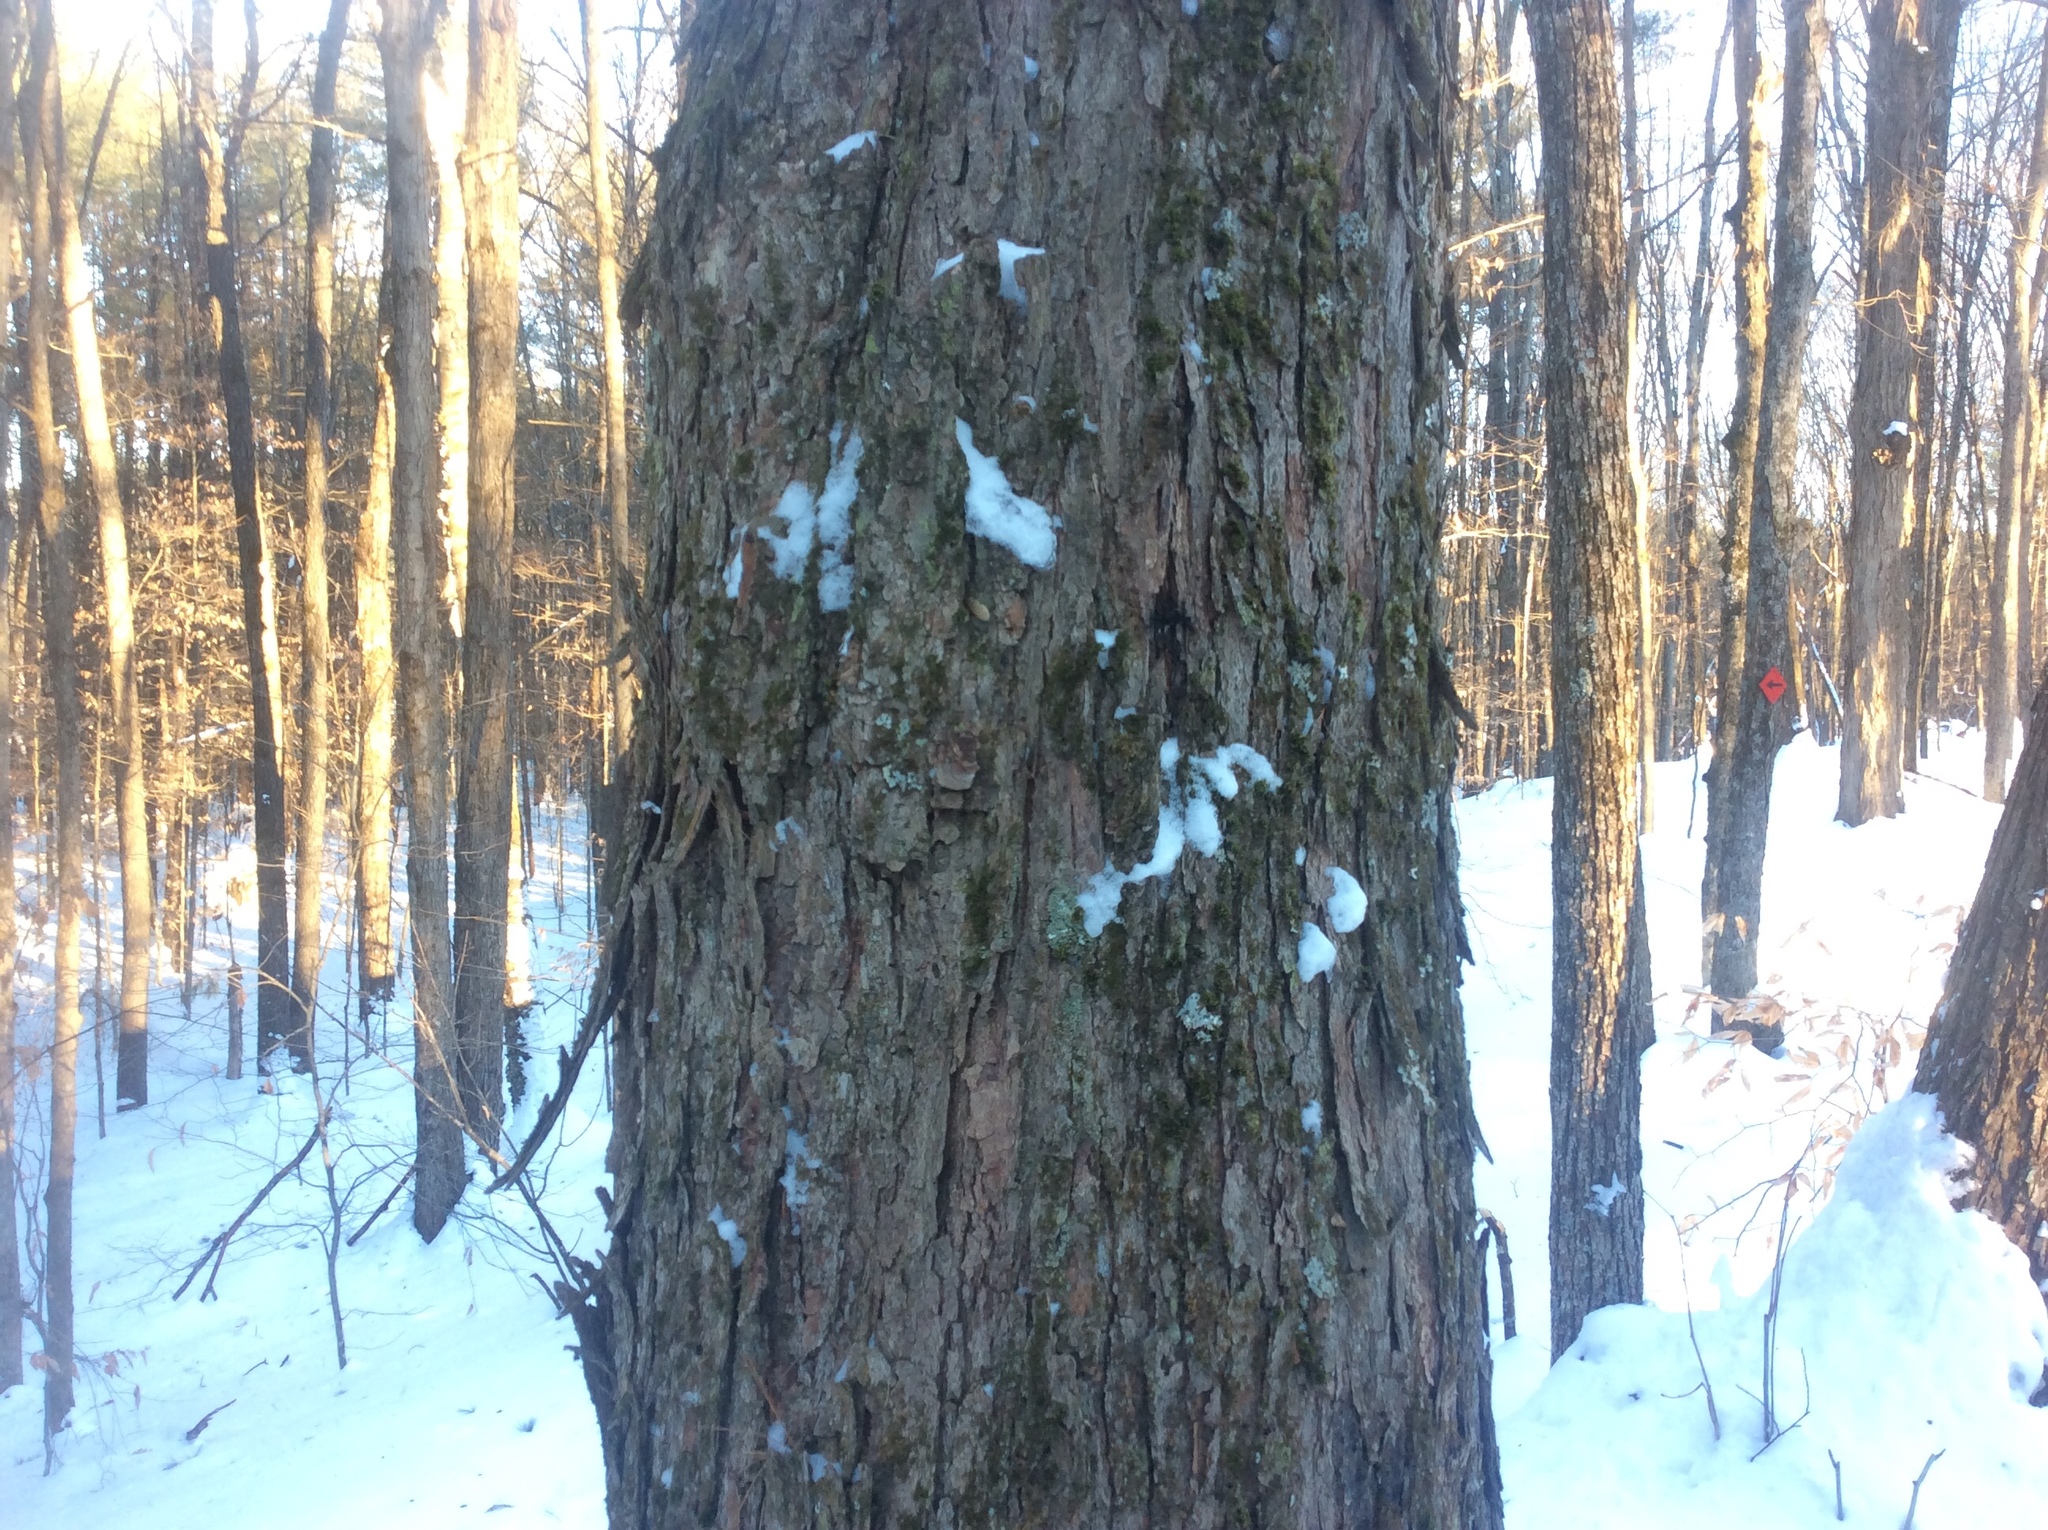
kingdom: Plantae
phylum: Tracheophyta
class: Magnoliopsida
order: Sapindales
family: Sapindaceae
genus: Acer
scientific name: Acer rubrum
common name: Red maple
